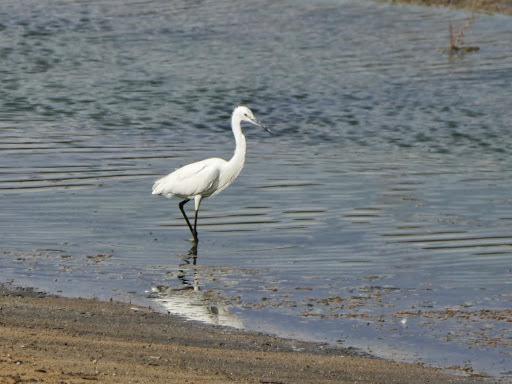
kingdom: Animalia
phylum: Chordata
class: Aves
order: Pelecaniformes
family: Ardeidae
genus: Egretta
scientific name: Egretta garzetta
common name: Little egret
